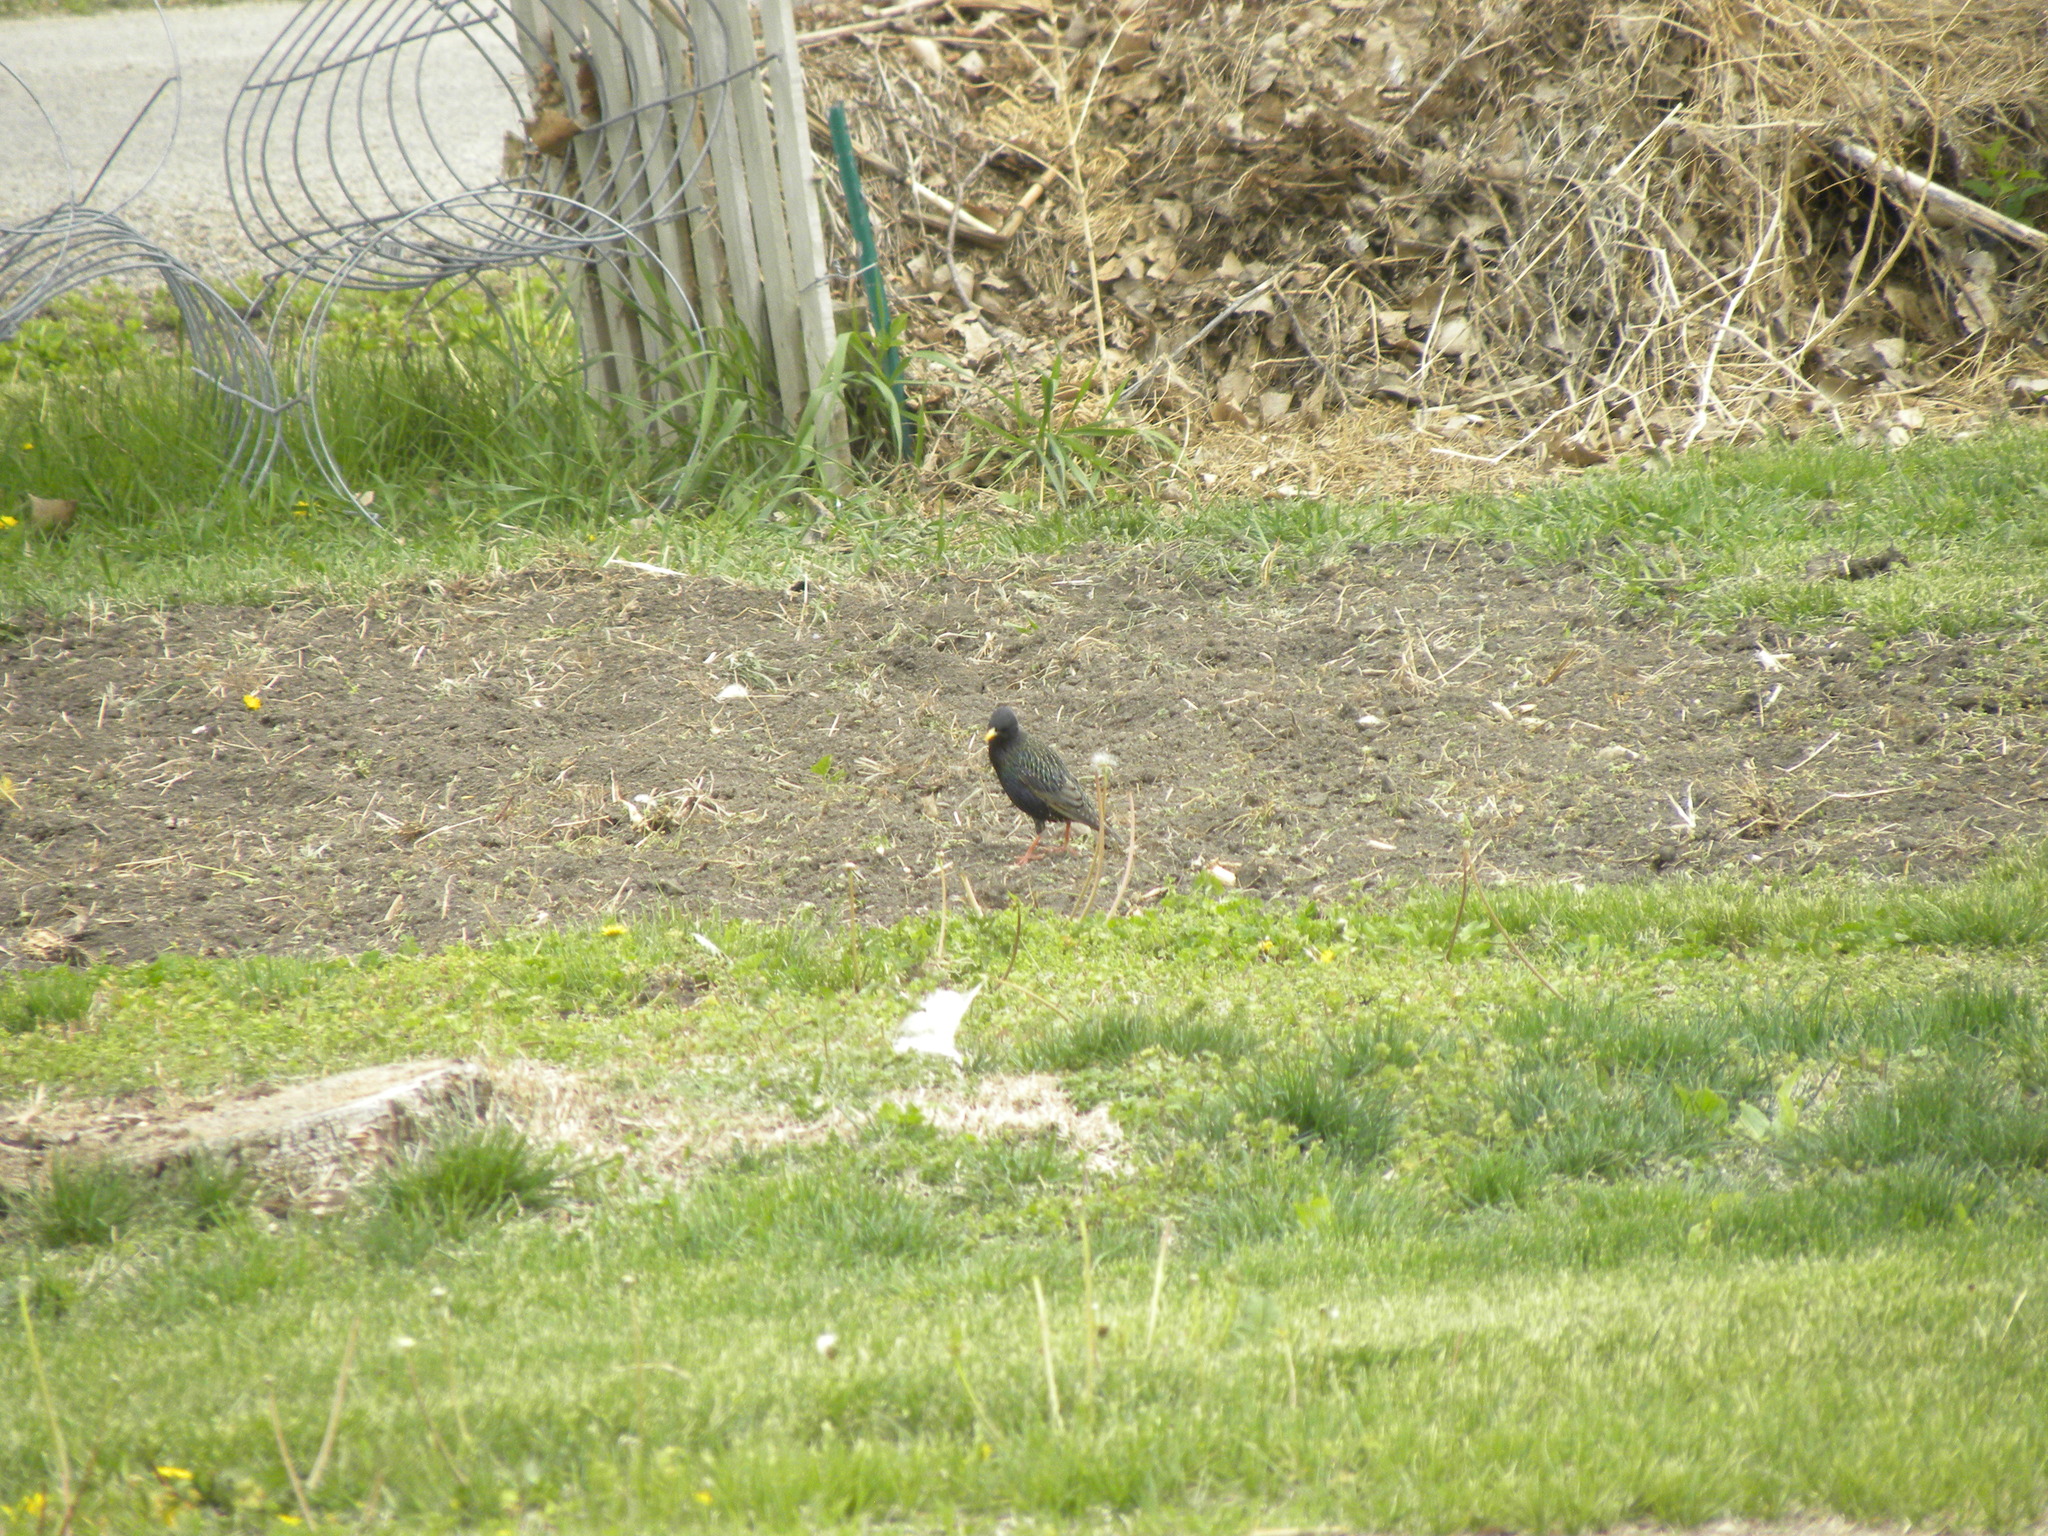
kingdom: Animalia
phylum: Chordata
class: Aves
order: Passeriformes
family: Sturnidae
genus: Sturnus
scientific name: Sturnus vulgaris
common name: Common starling
